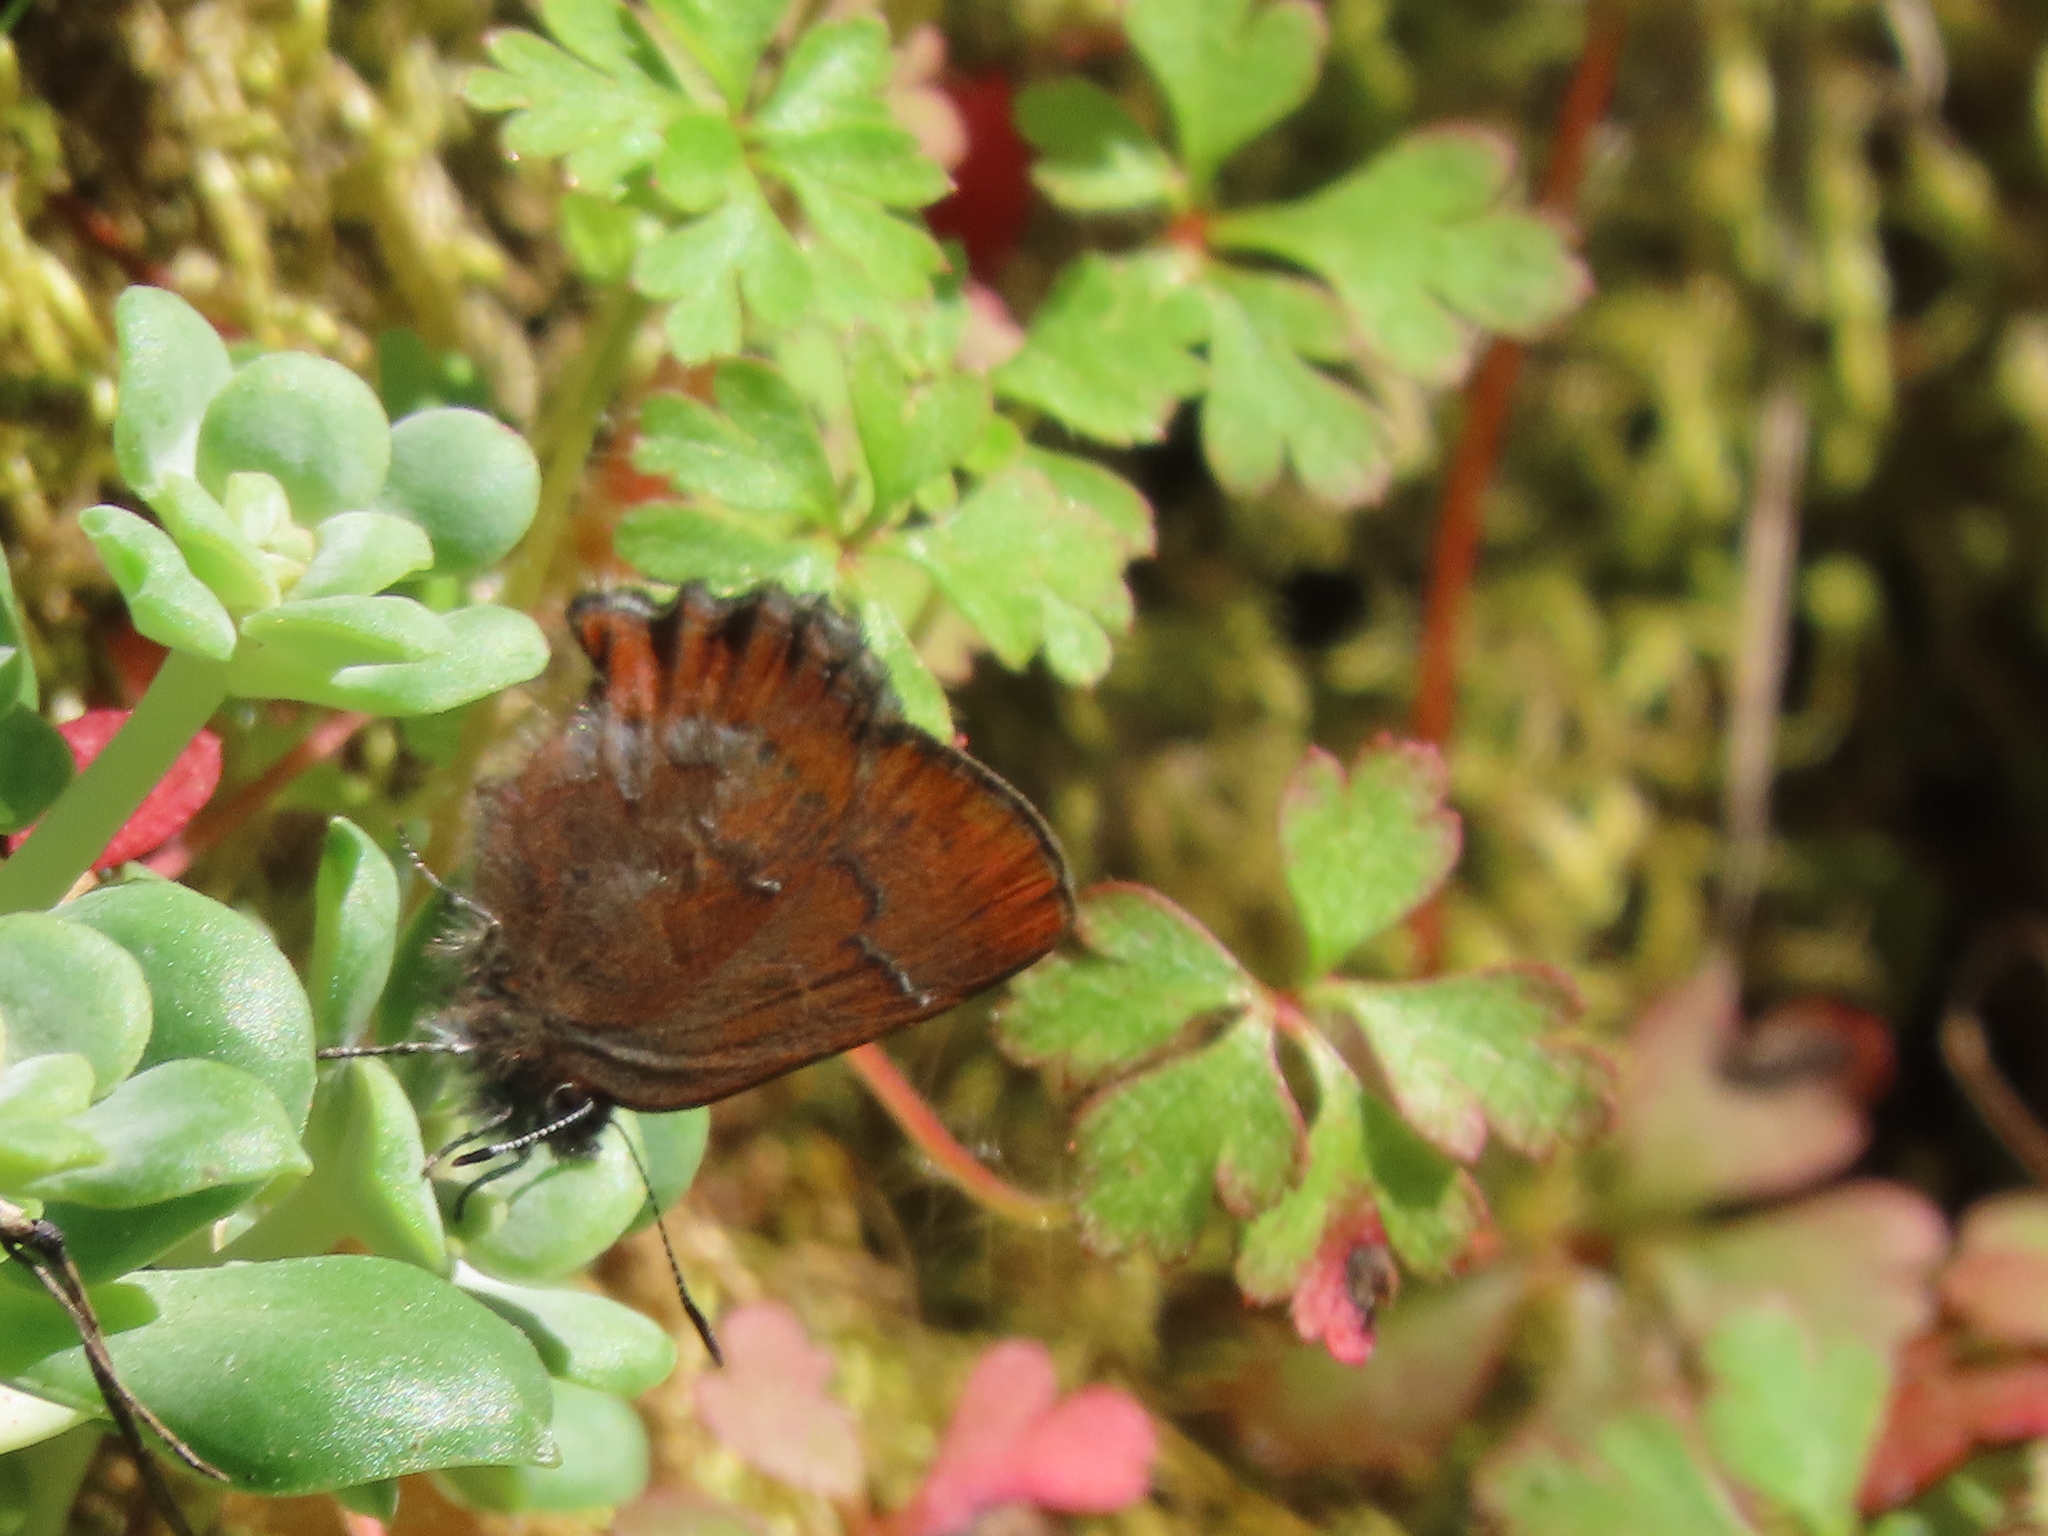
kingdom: Animalia
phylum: Arthropoda
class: Insecta
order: Lepidoptera
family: Lycaenidae
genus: Callophrys
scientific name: Callophrys mossii
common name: Moss' elfin
